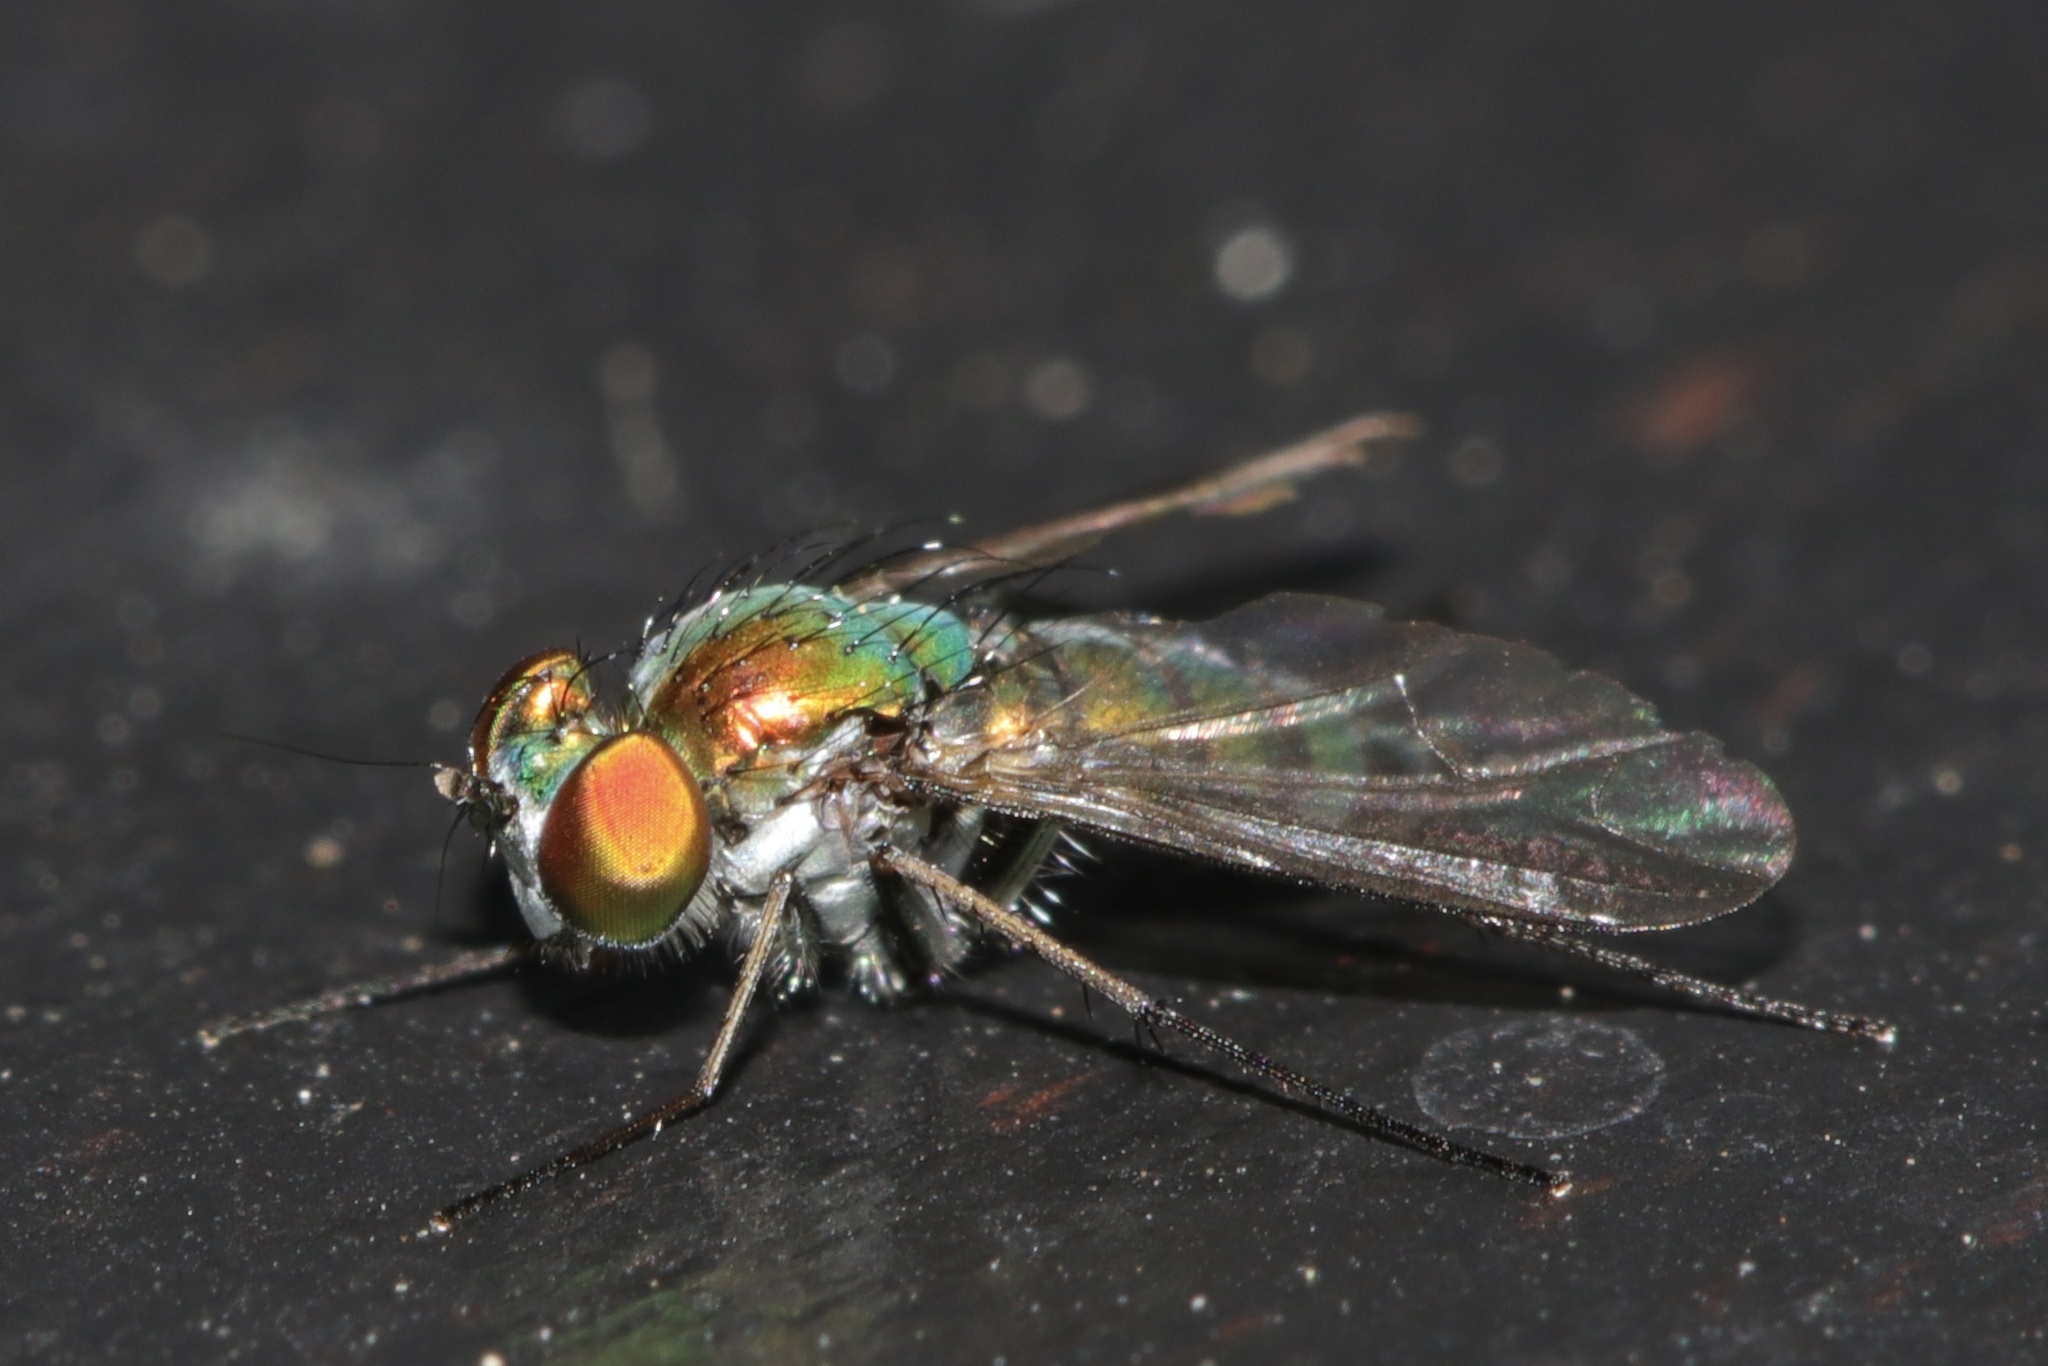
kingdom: Animalia
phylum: Arthropoda
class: Insecta
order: Diptera
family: Dolichopodidae
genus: Condylostylus
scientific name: Condylostylus longicornis
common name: Long-legged fly
